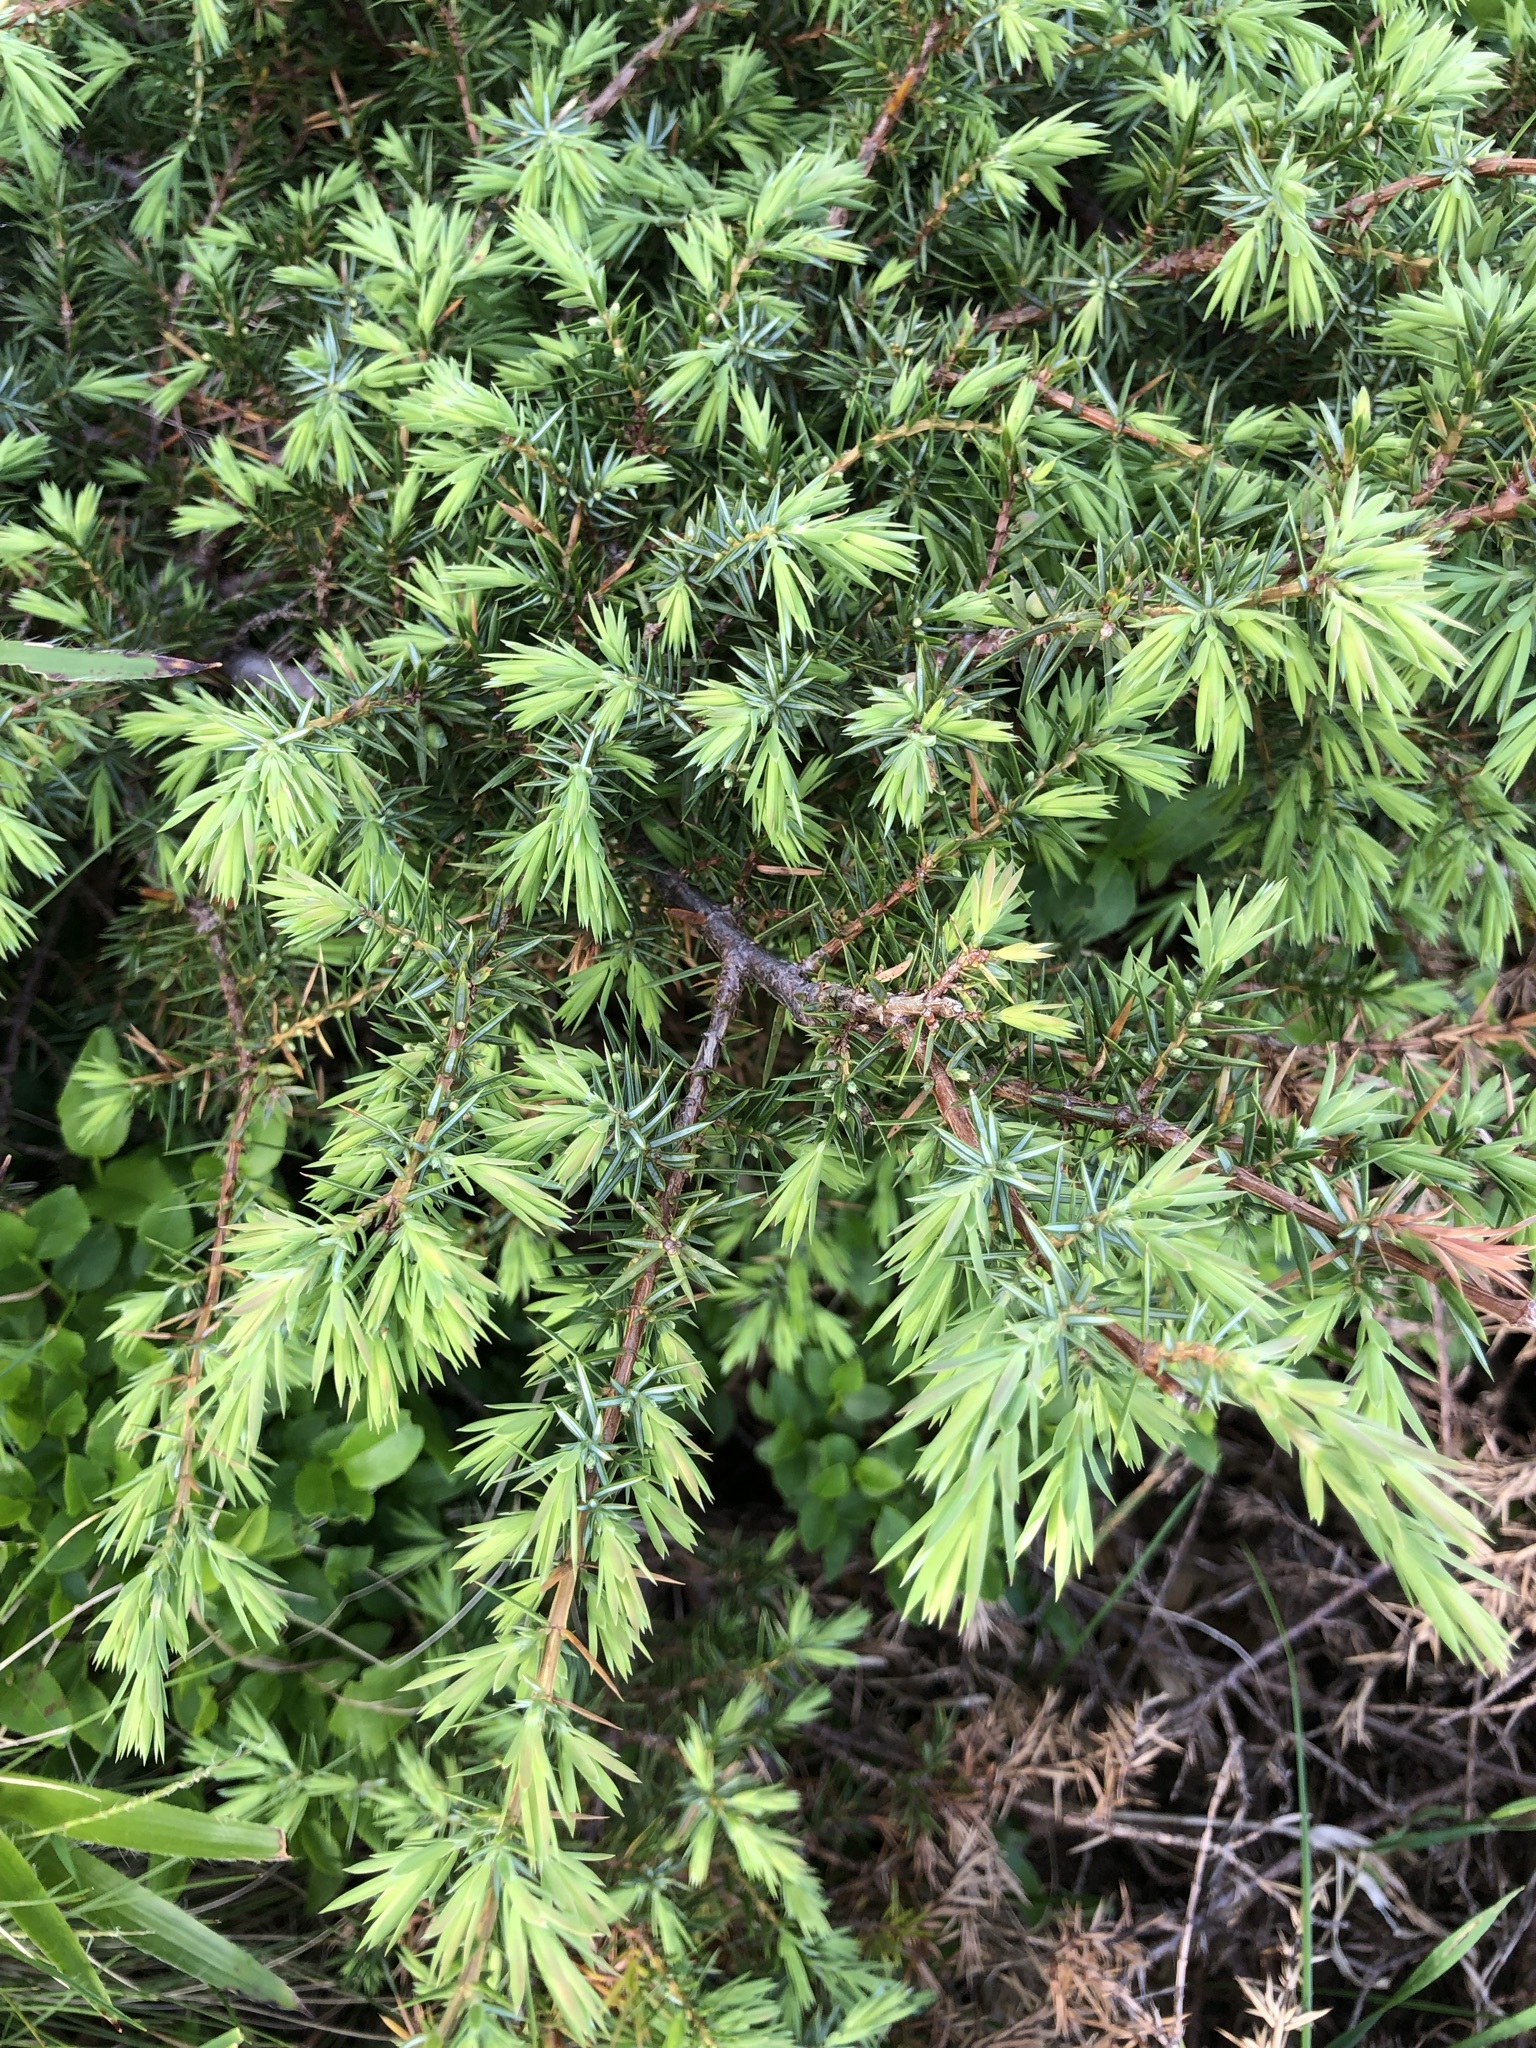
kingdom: Plantae
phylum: Tracheophyta
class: Pinopsida
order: Pinales
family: Cupressaceae
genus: Juniperus
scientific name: Juniperus communis
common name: Common juniper
